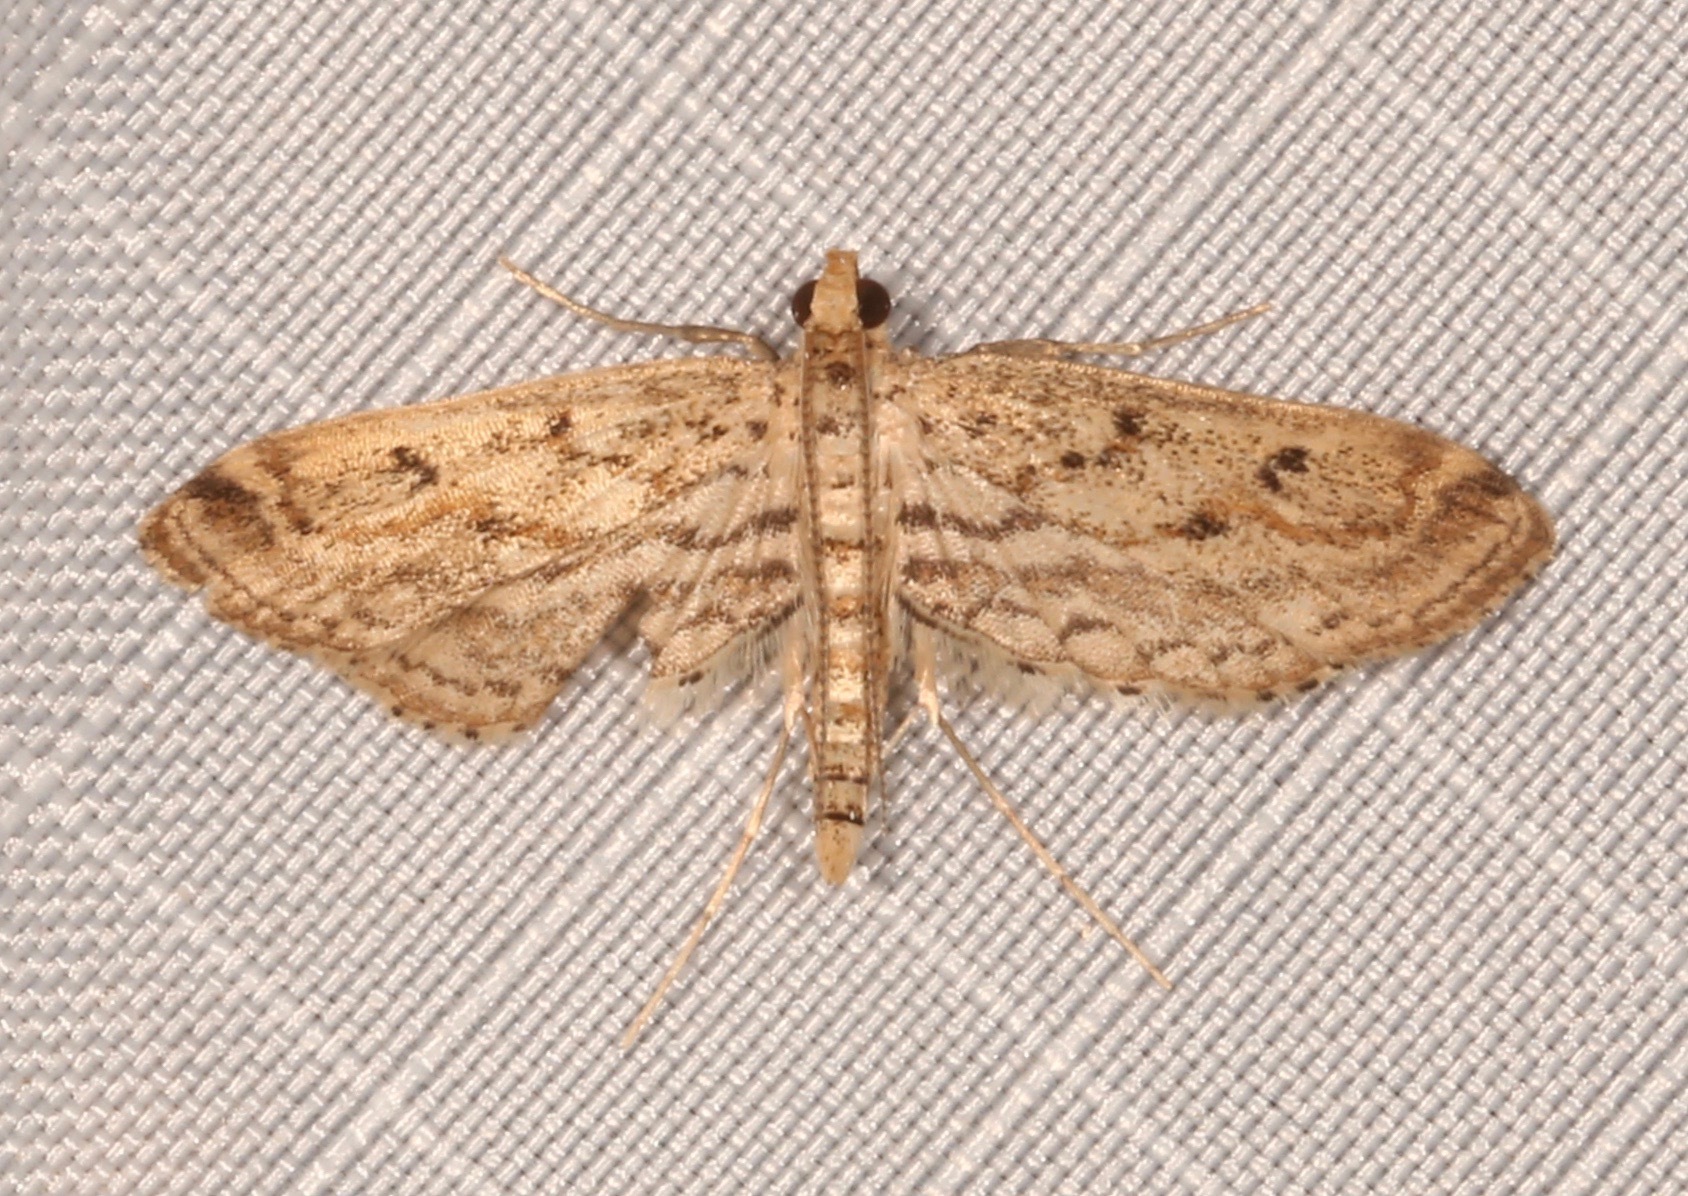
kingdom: Animalia
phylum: Arthropoda
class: Insecta
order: Lepidoptera
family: Crambidae
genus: Parapoynx
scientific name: Parapoynx allionealis
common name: Bladderwort casemaker
